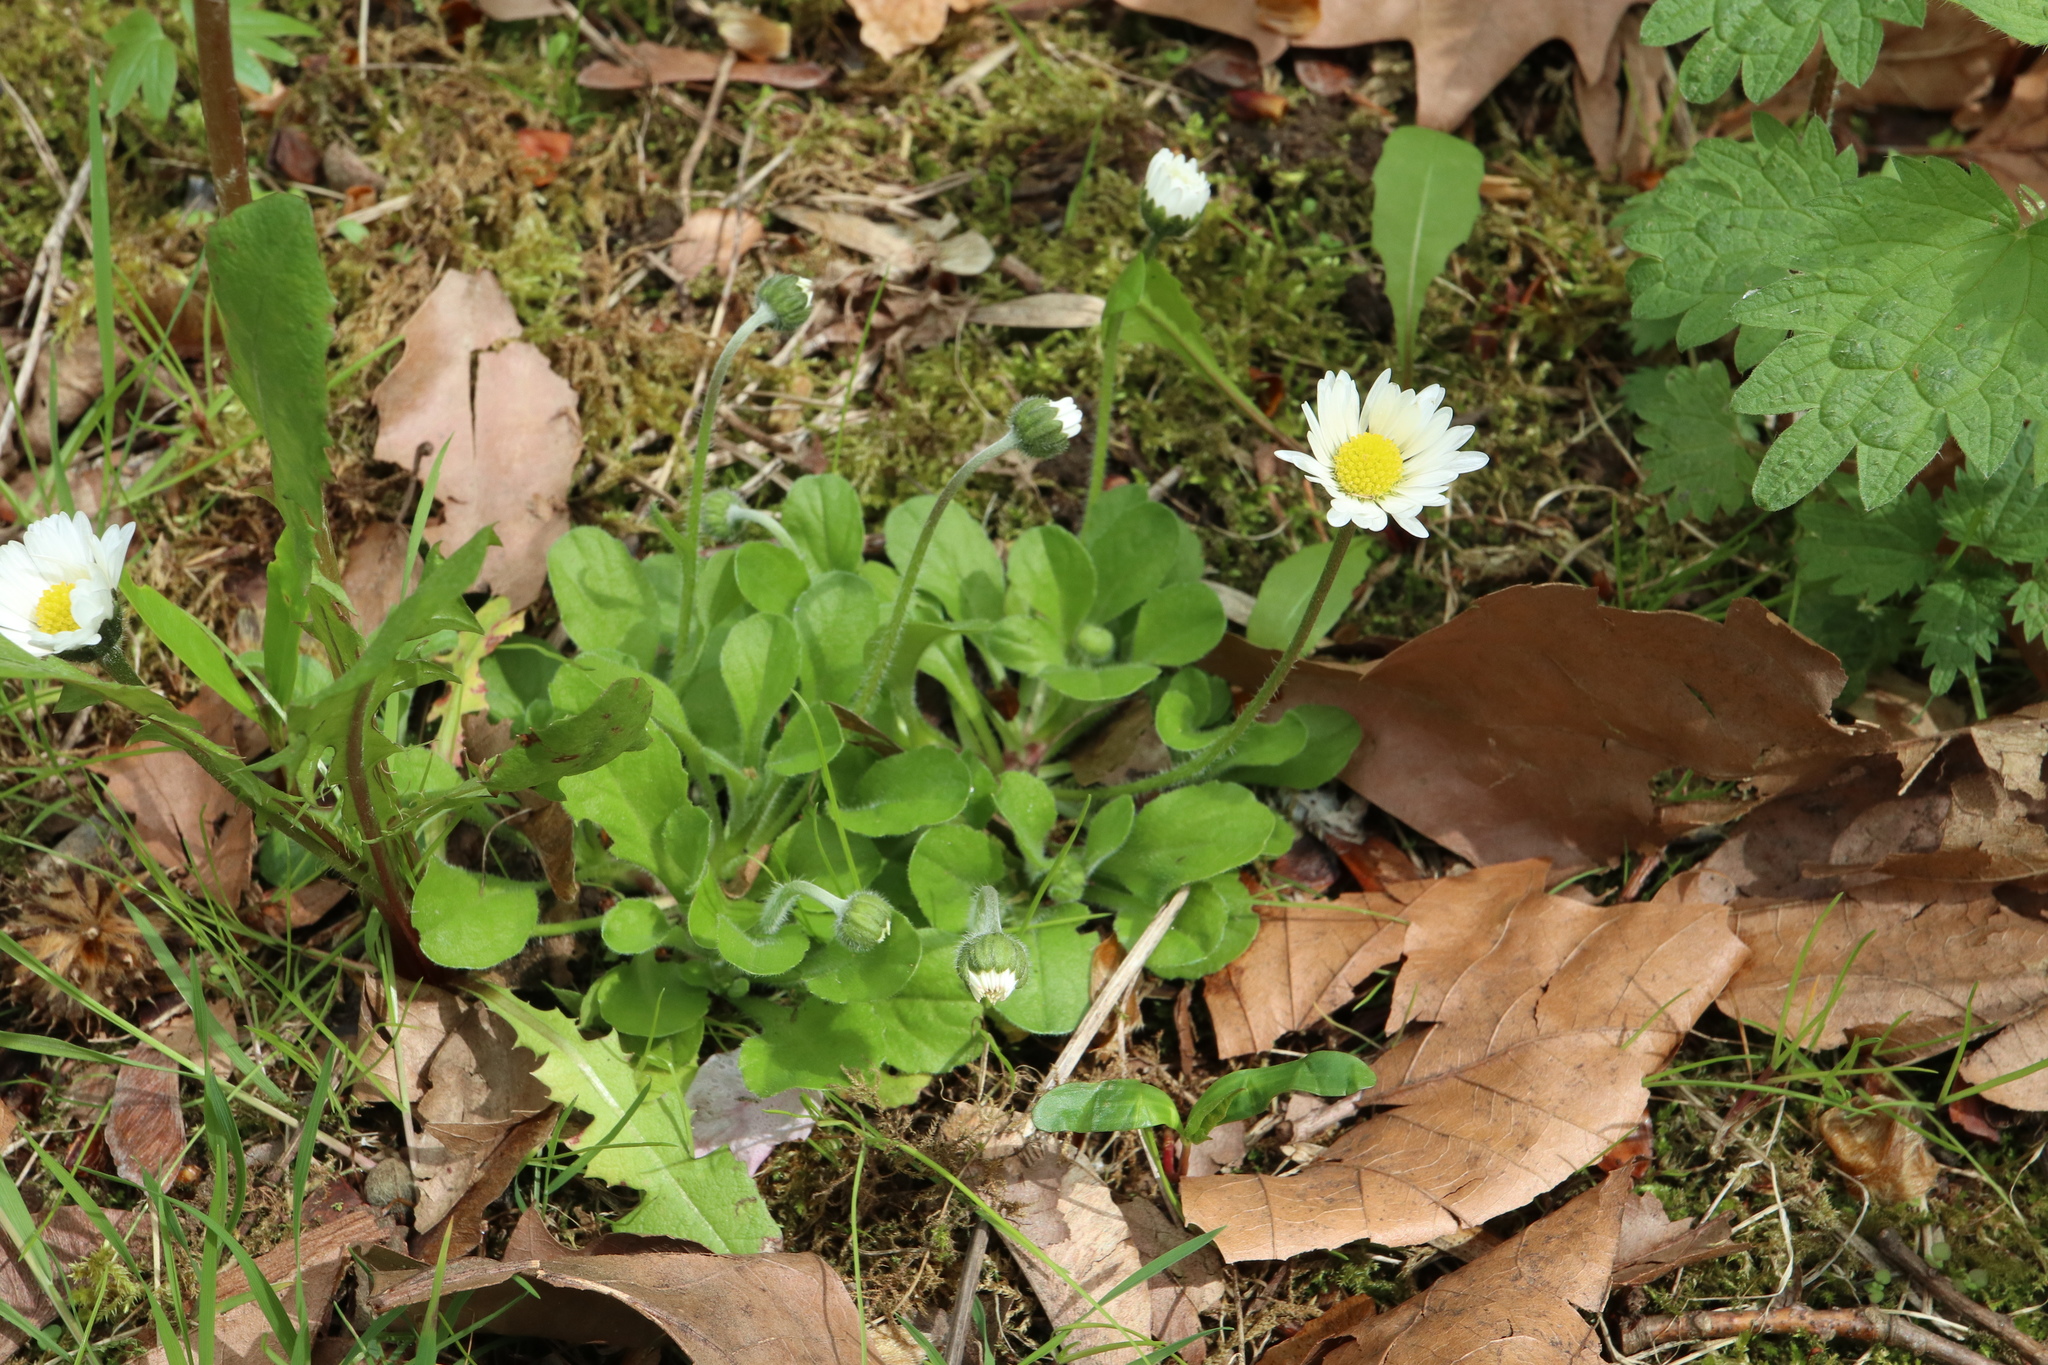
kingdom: Plantae
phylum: Tracheophyta
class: Magnoliopsida
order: Asterales
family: Asteraceae
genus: Bellis
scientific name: Bellis perennis
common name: Lawndaisy
